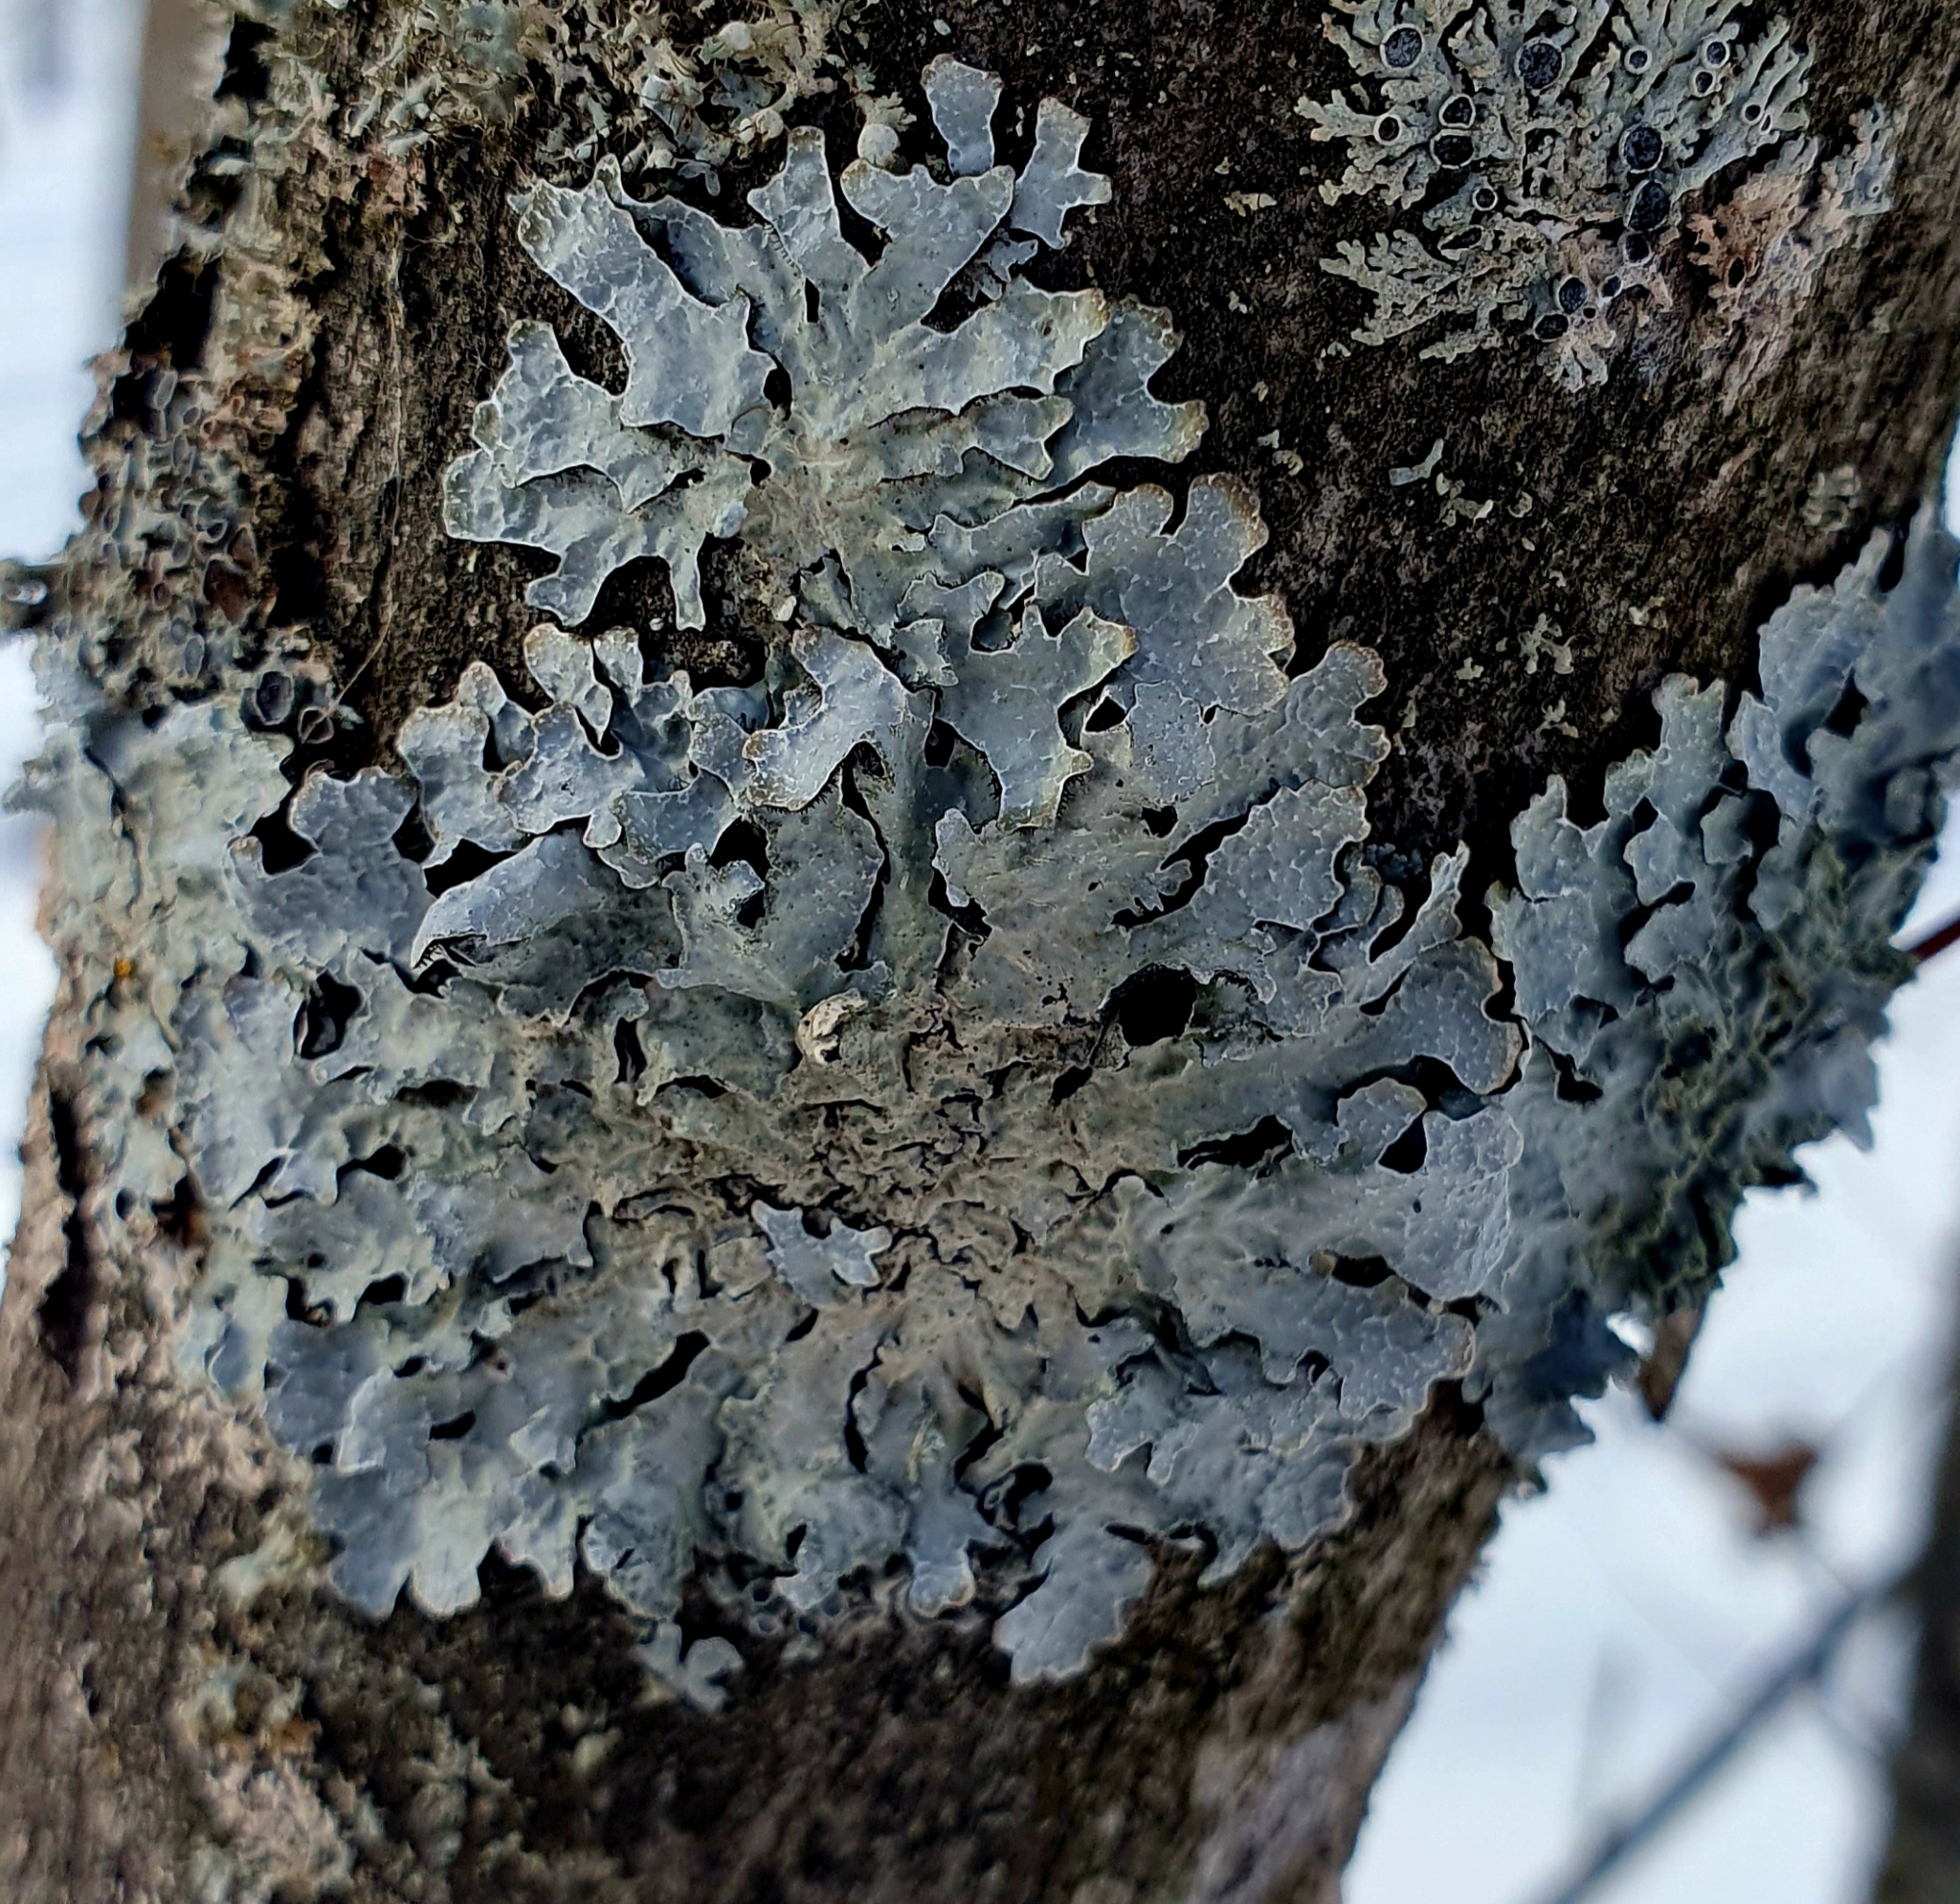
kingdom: Fungi
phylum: Ascomycota
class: Lecanoromycetes
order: Lecanorales
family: Parmeliaceae
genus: Parmelia
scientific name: Parmelia sulcata
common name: Netted shield lichen
